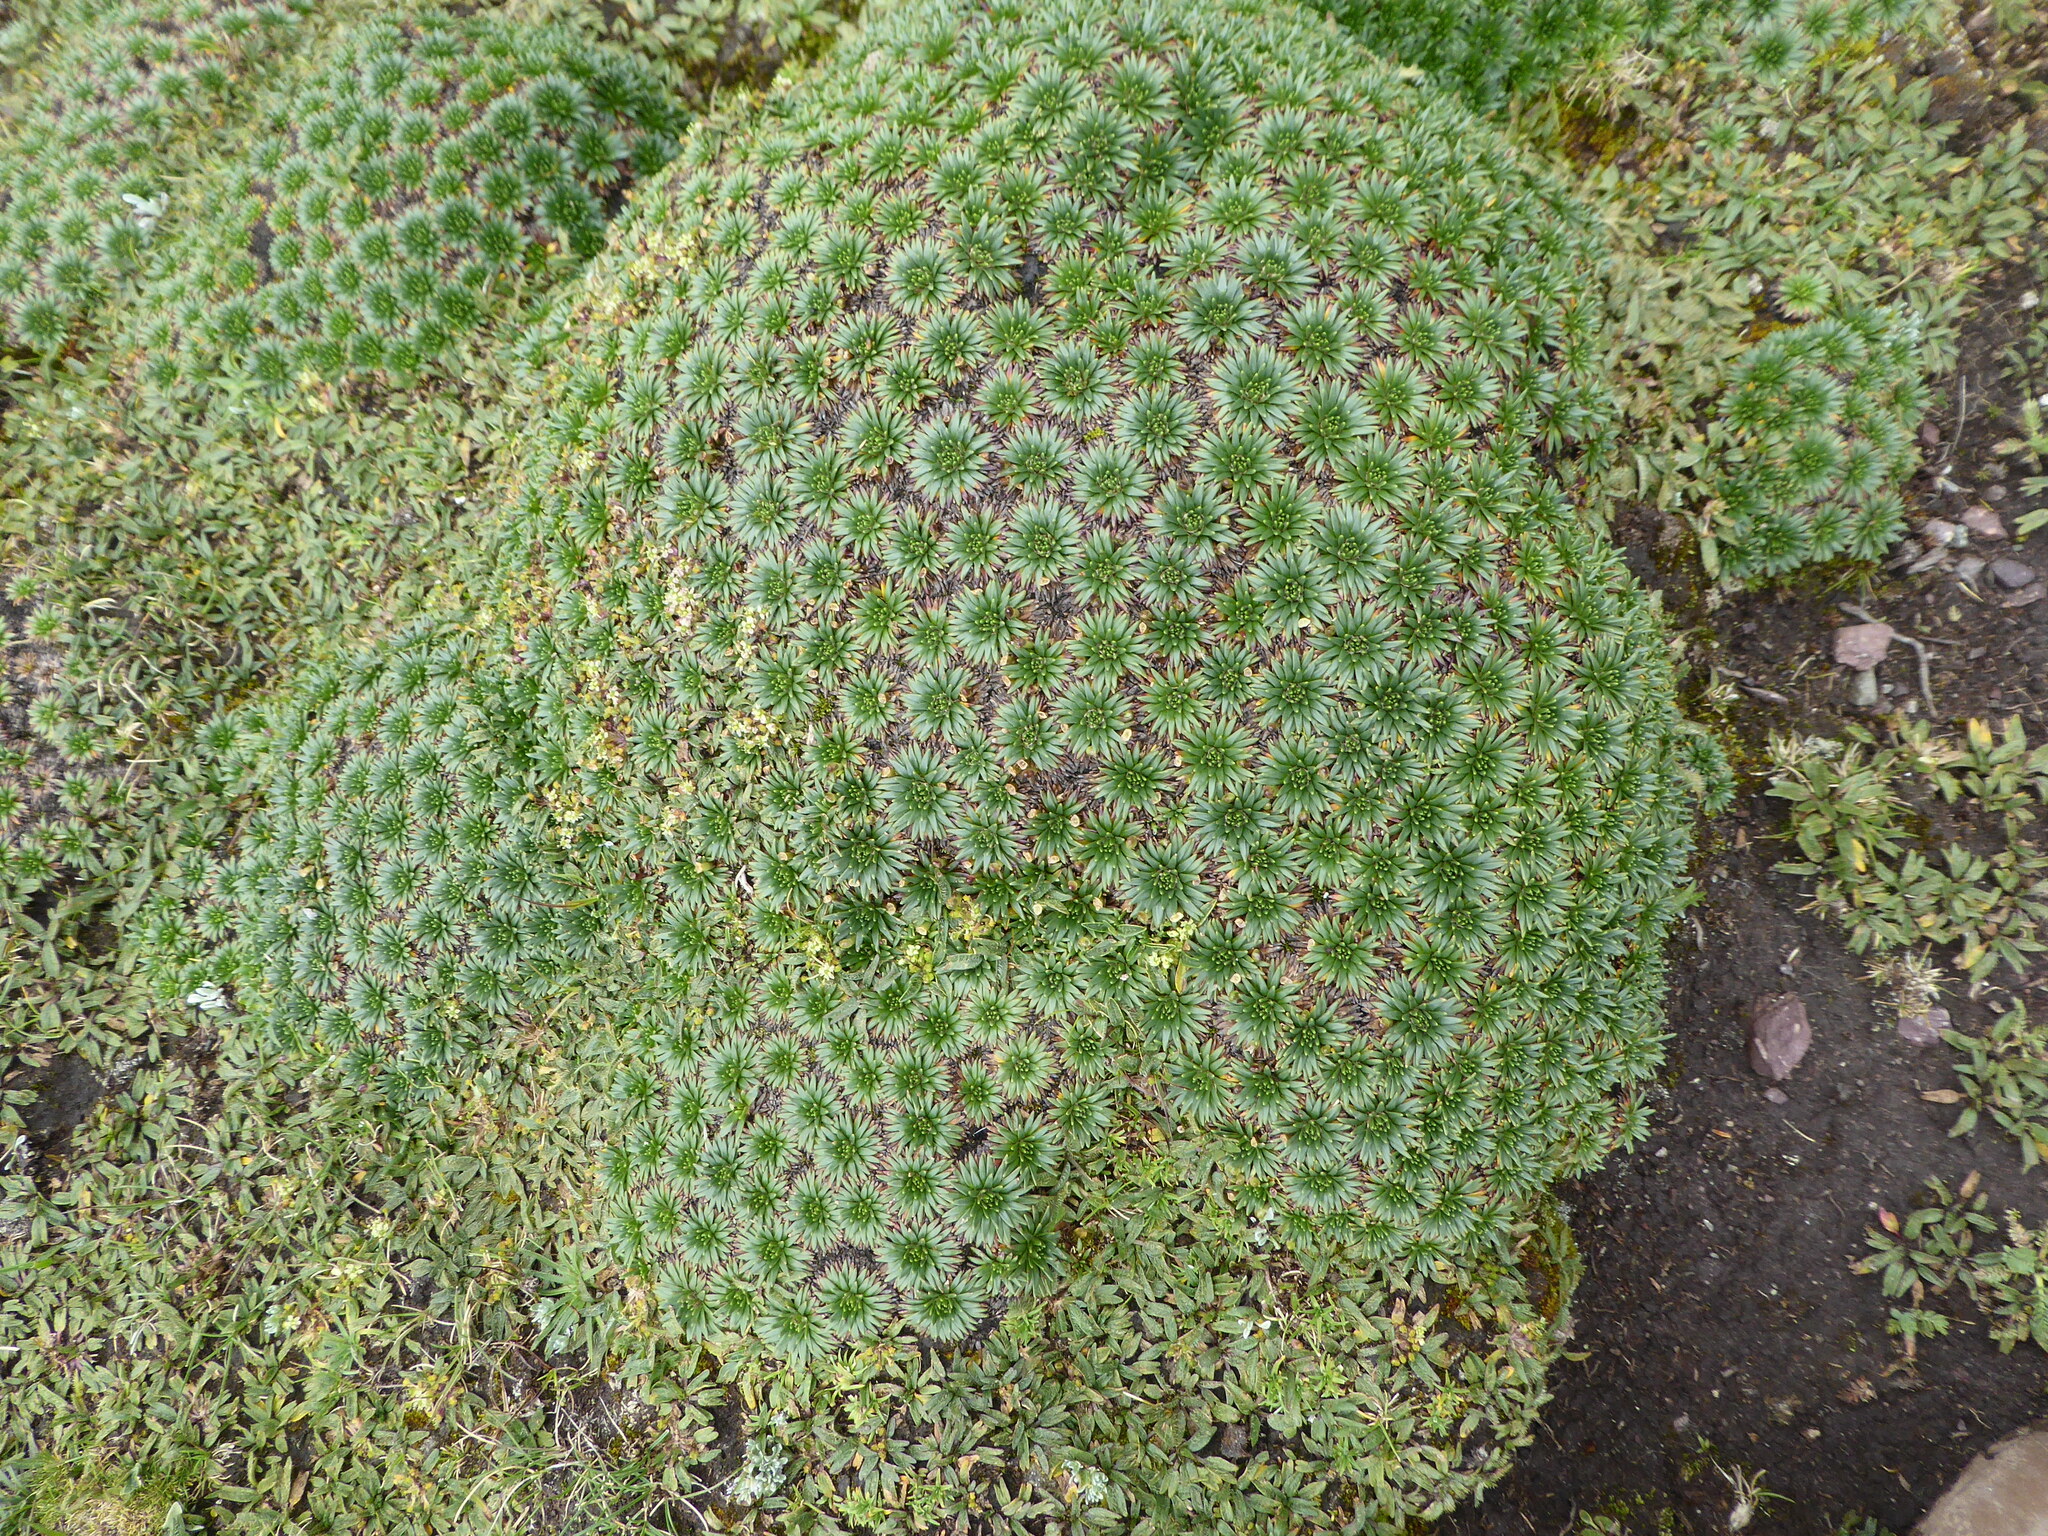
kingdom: Plantae
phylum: Tracheophyta
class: Magnoliopsida
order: Lamiales
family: Plantaginaceae
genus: Plantago
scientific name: Plantago rigida
